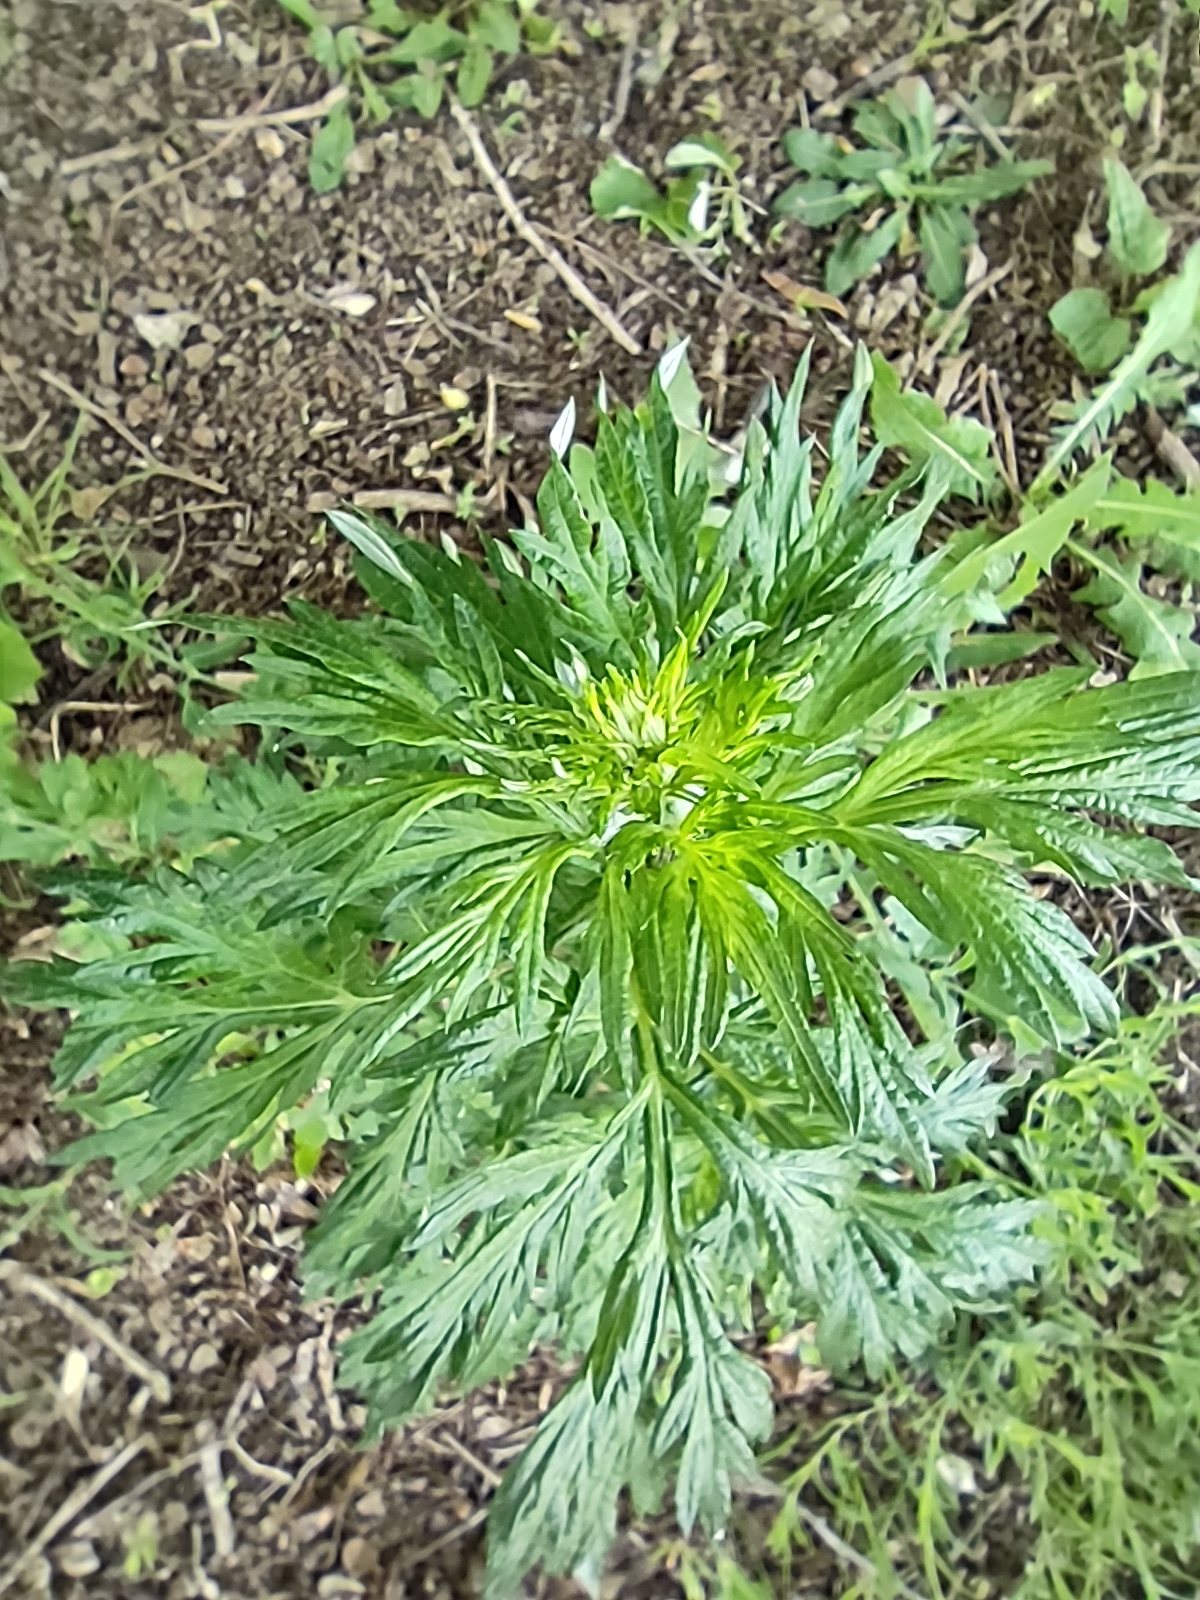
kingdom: Plantae
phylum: Tracheophyta
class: Magnoliopsida
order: Asterales
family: Asteraceae
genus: Artemisia
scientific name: Artemisia vulgaris
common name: Mugwort
